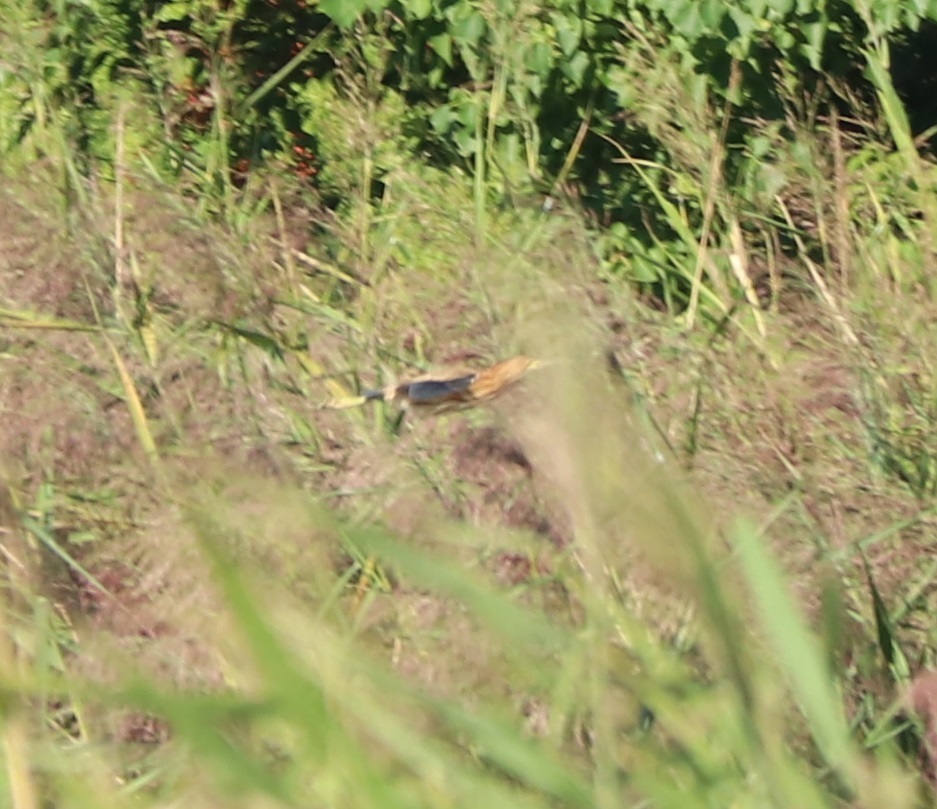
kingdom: Animalia
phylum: Chordata
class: Aves
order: Pelecaniformes
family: Ardeidae
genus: Ixobrychus
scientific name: Ixobrychus sinensis
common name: Yellow bittern
